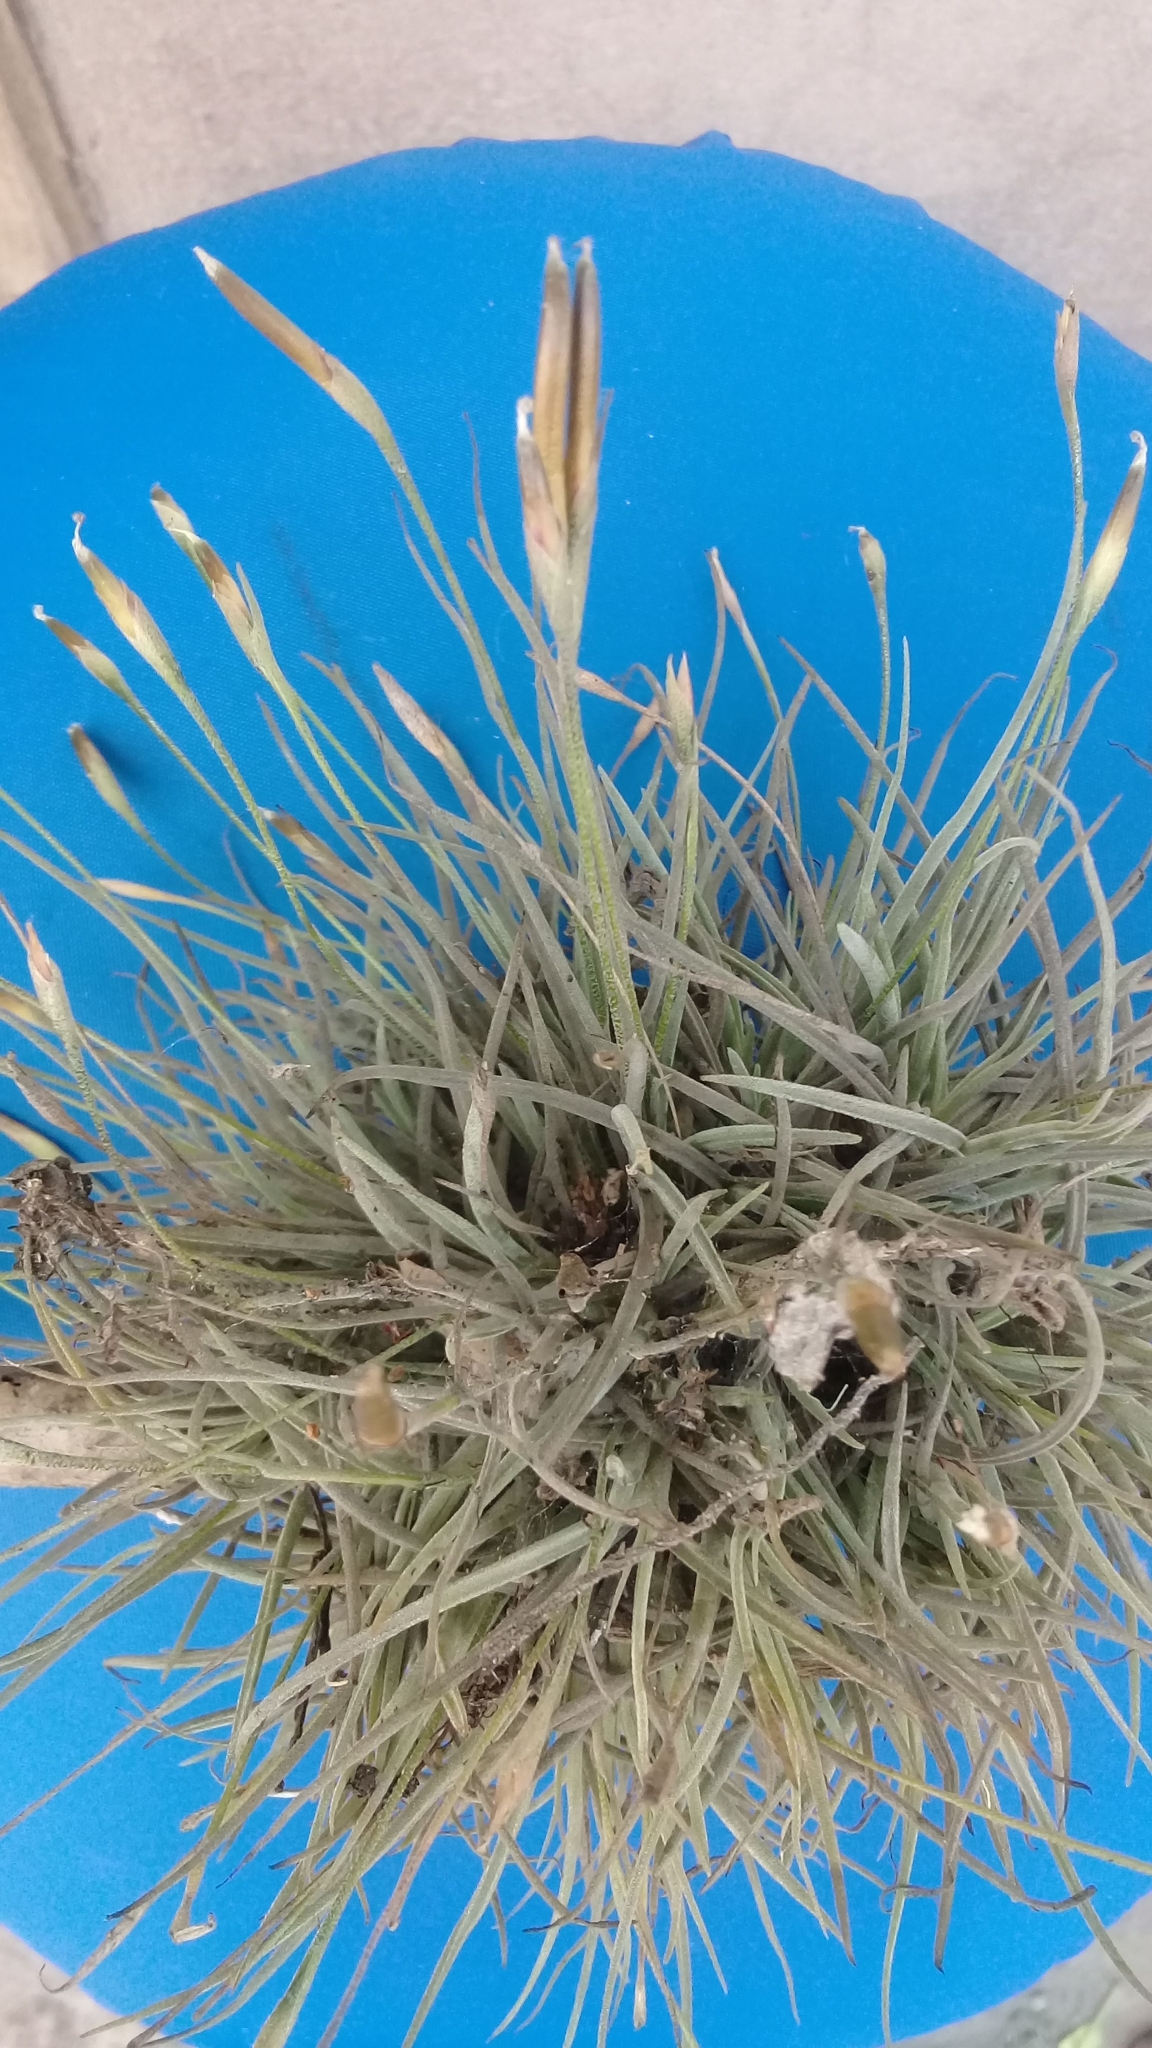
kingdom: Plantae
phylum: Tracheophyta
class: Liliopsida
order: Poales
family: Bromeliaceae
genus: Tillandsia
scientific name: Tillandsia recurvata
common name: Small ballmoss
